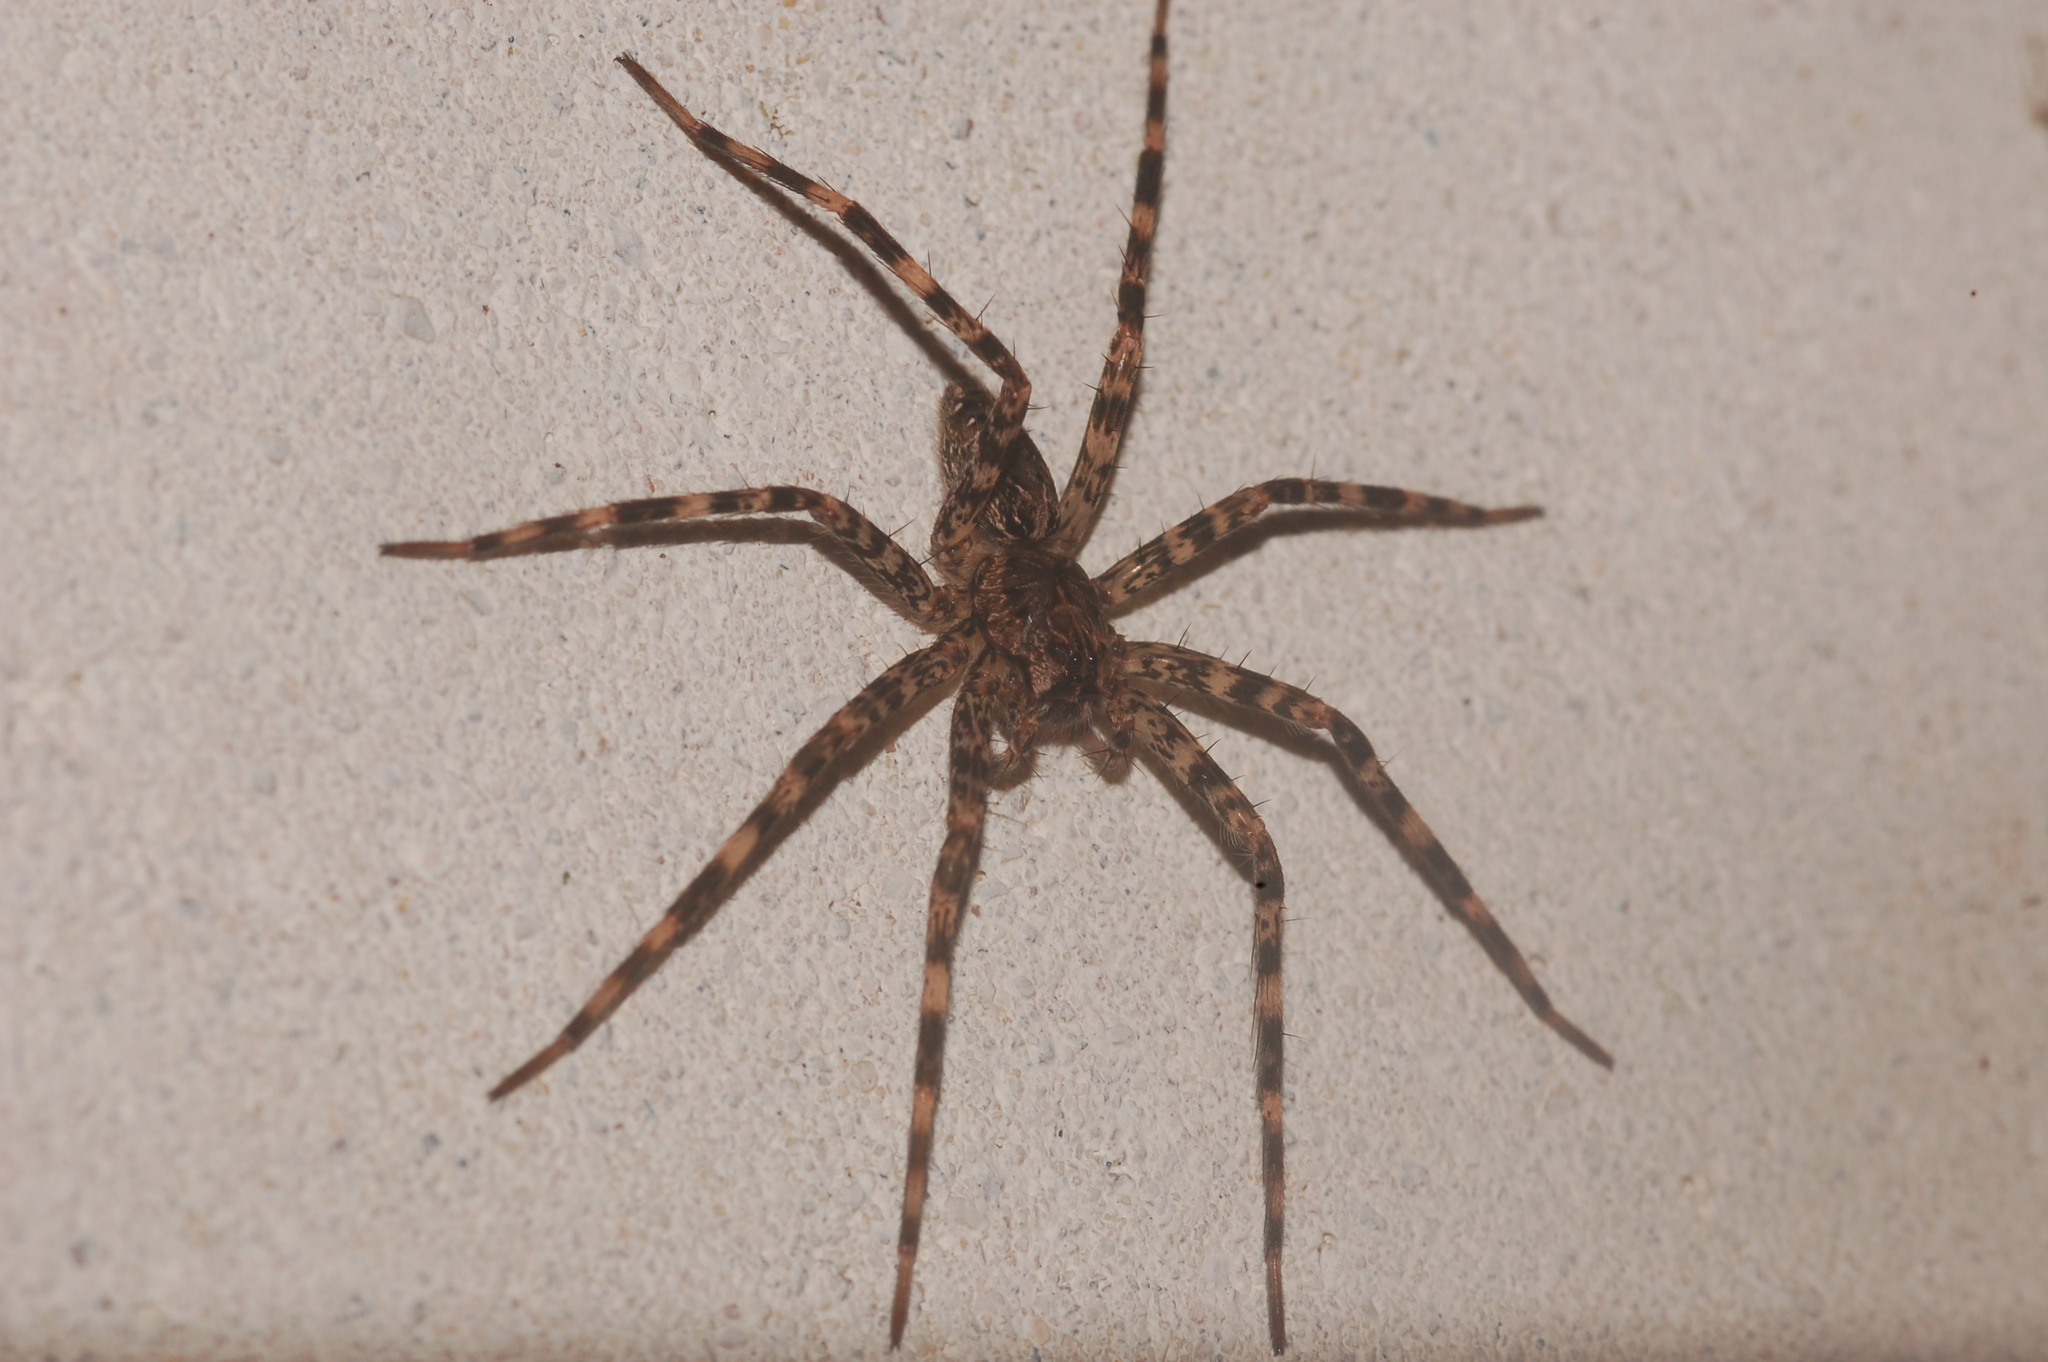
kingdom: Animalia
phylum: Arthropoda
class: Arachnida
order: Araneae
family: Pisauridae
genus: Dolomedes
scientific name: Dolomedes tenebrosus
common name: Dark fishing spider
